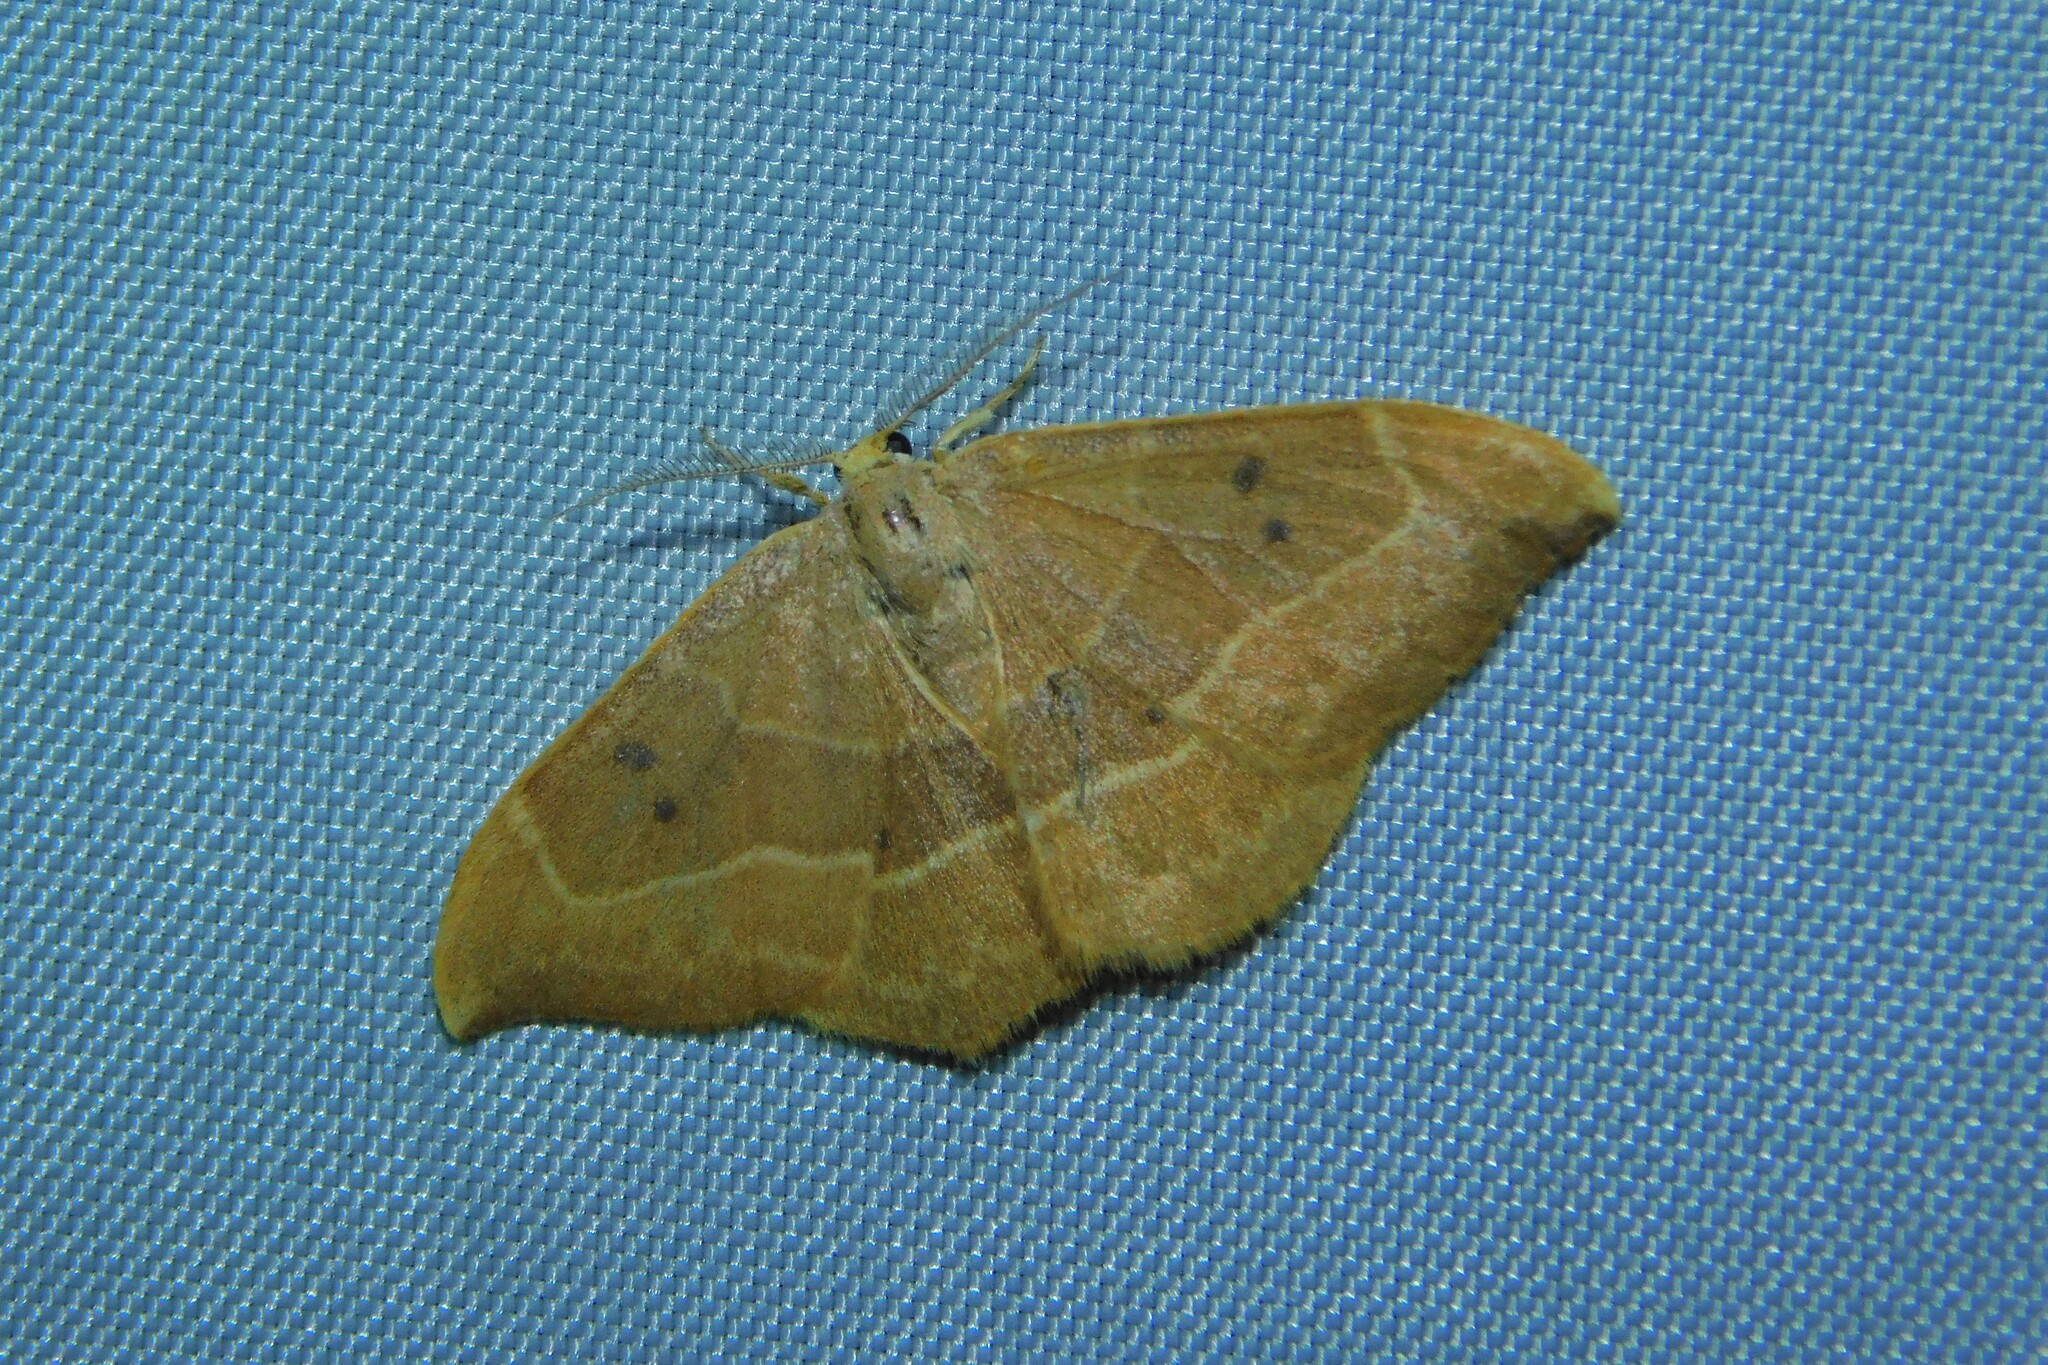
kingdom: Animalia
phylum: Arthropoda
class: Insecta
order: Lepidoptera
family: Drepanidae
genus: Watsonalla
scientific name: Watsonalla binaria
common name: Oak hook-tip
